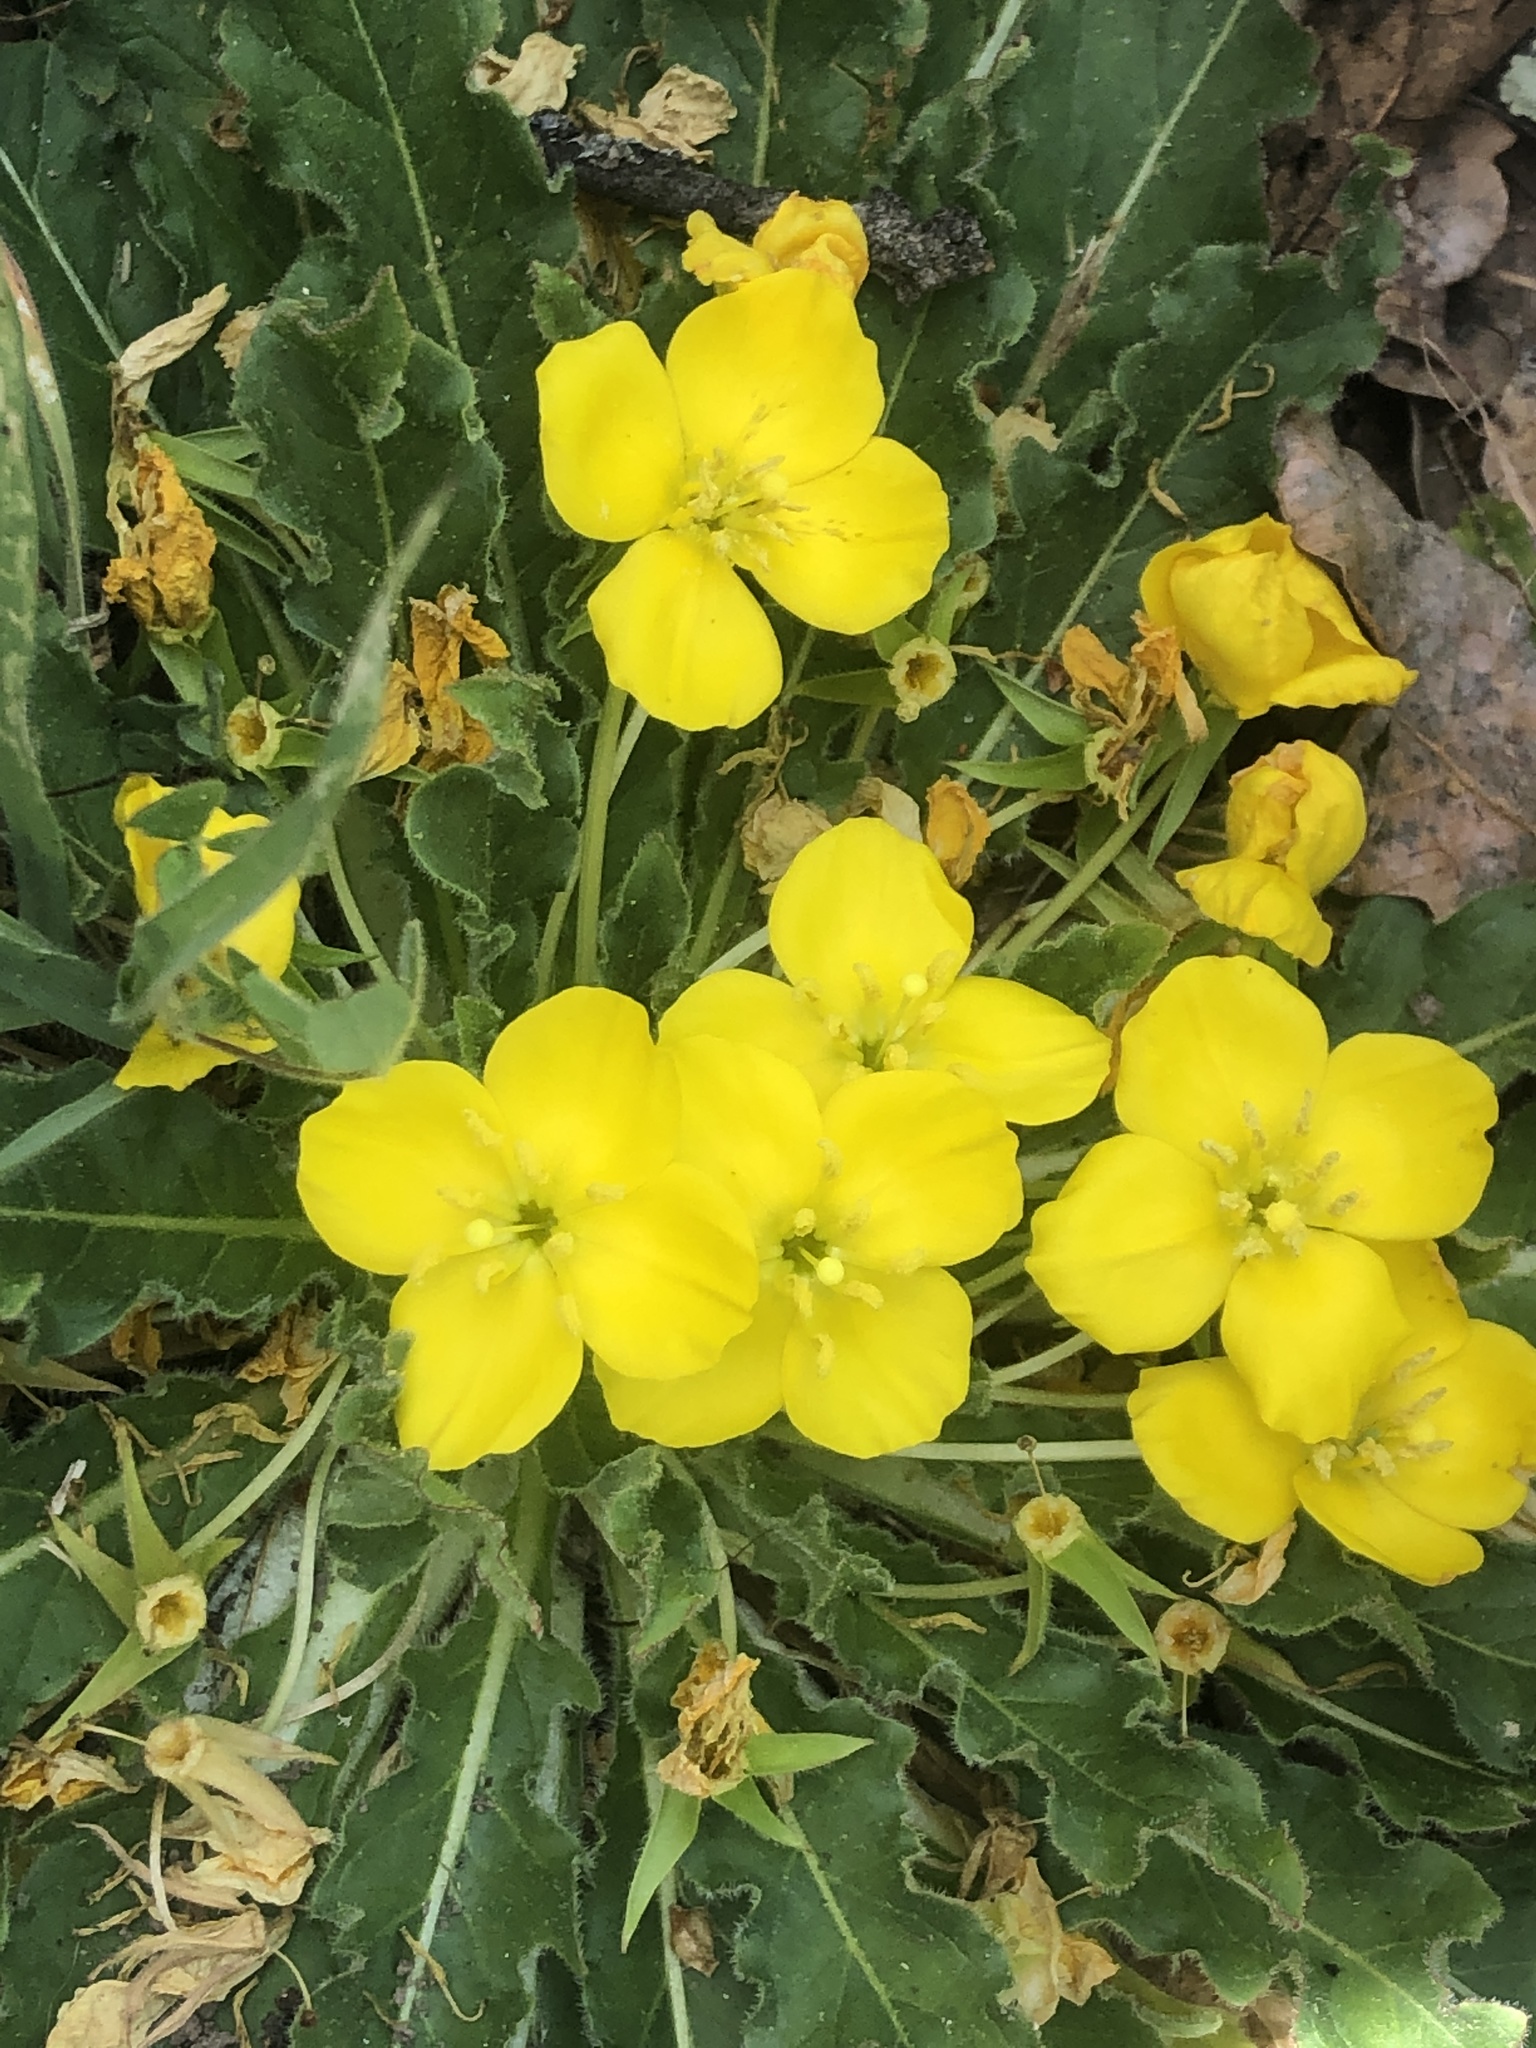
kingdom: Plantae
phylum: Tracheophyta
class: Magnoliopsida
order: Myrtales
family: Onagraceae
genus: Taraxia
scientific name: Taraxia ovata
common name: Goldeneggs
